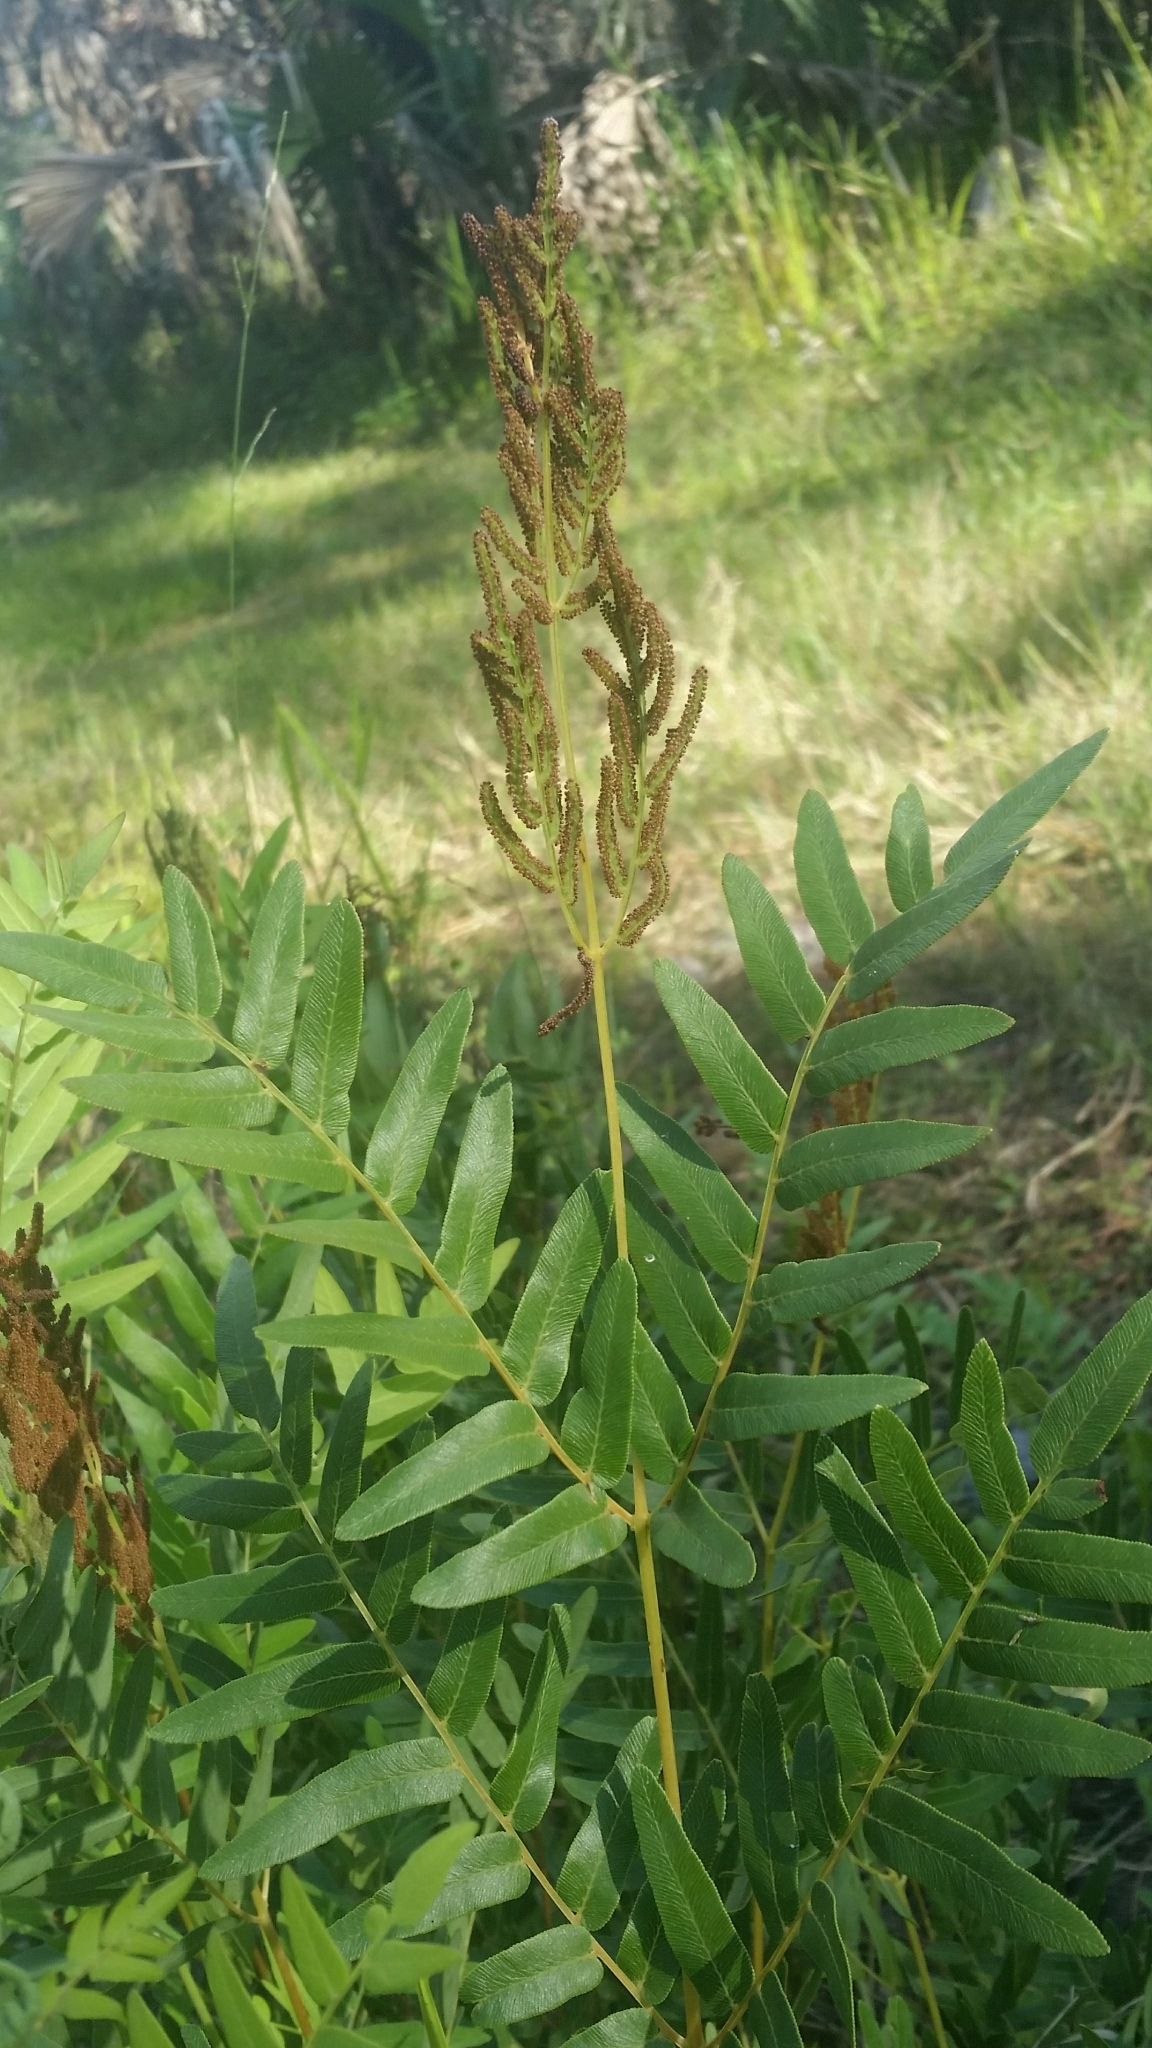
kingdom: Plantae
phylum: Tracheophyta
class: Polypodiopsida
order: Osmundales
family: Osmundaceae
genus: Osmunda
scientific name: Osmunda spectabilis
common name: American royal fern
